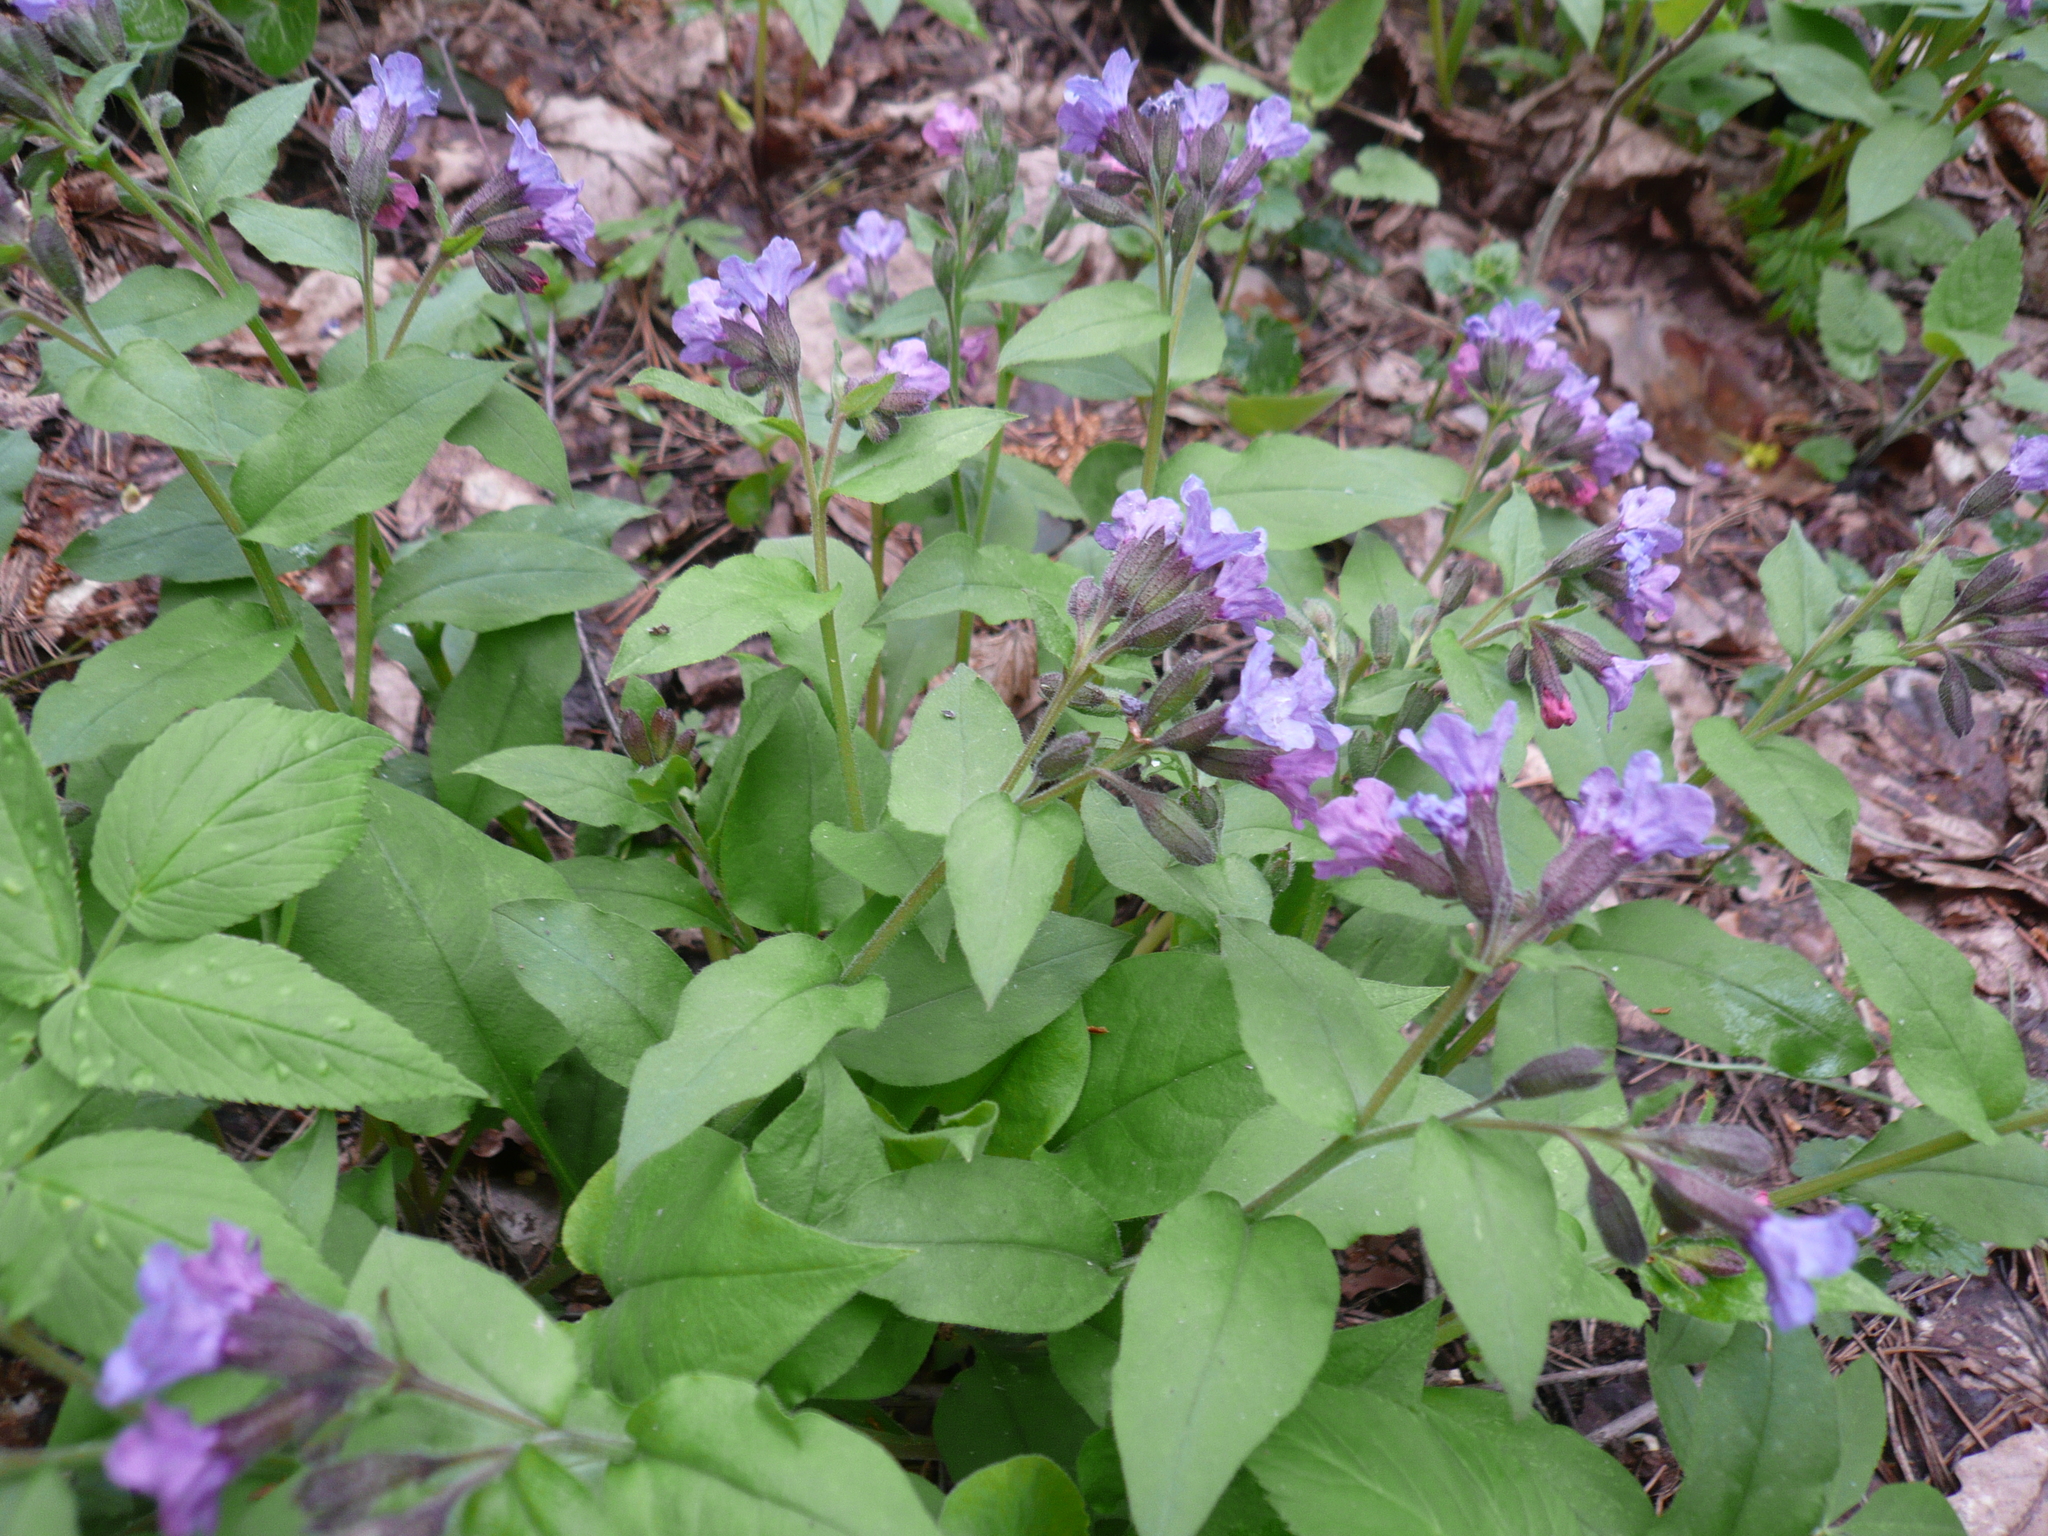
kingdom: Plantae
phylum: Tracheophyta
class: Magnoliopsida
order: Boraginales
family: Boraginaceae
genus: Pulmonaria
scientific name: Pulmonaria obscura
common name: Suffolk lungwort
